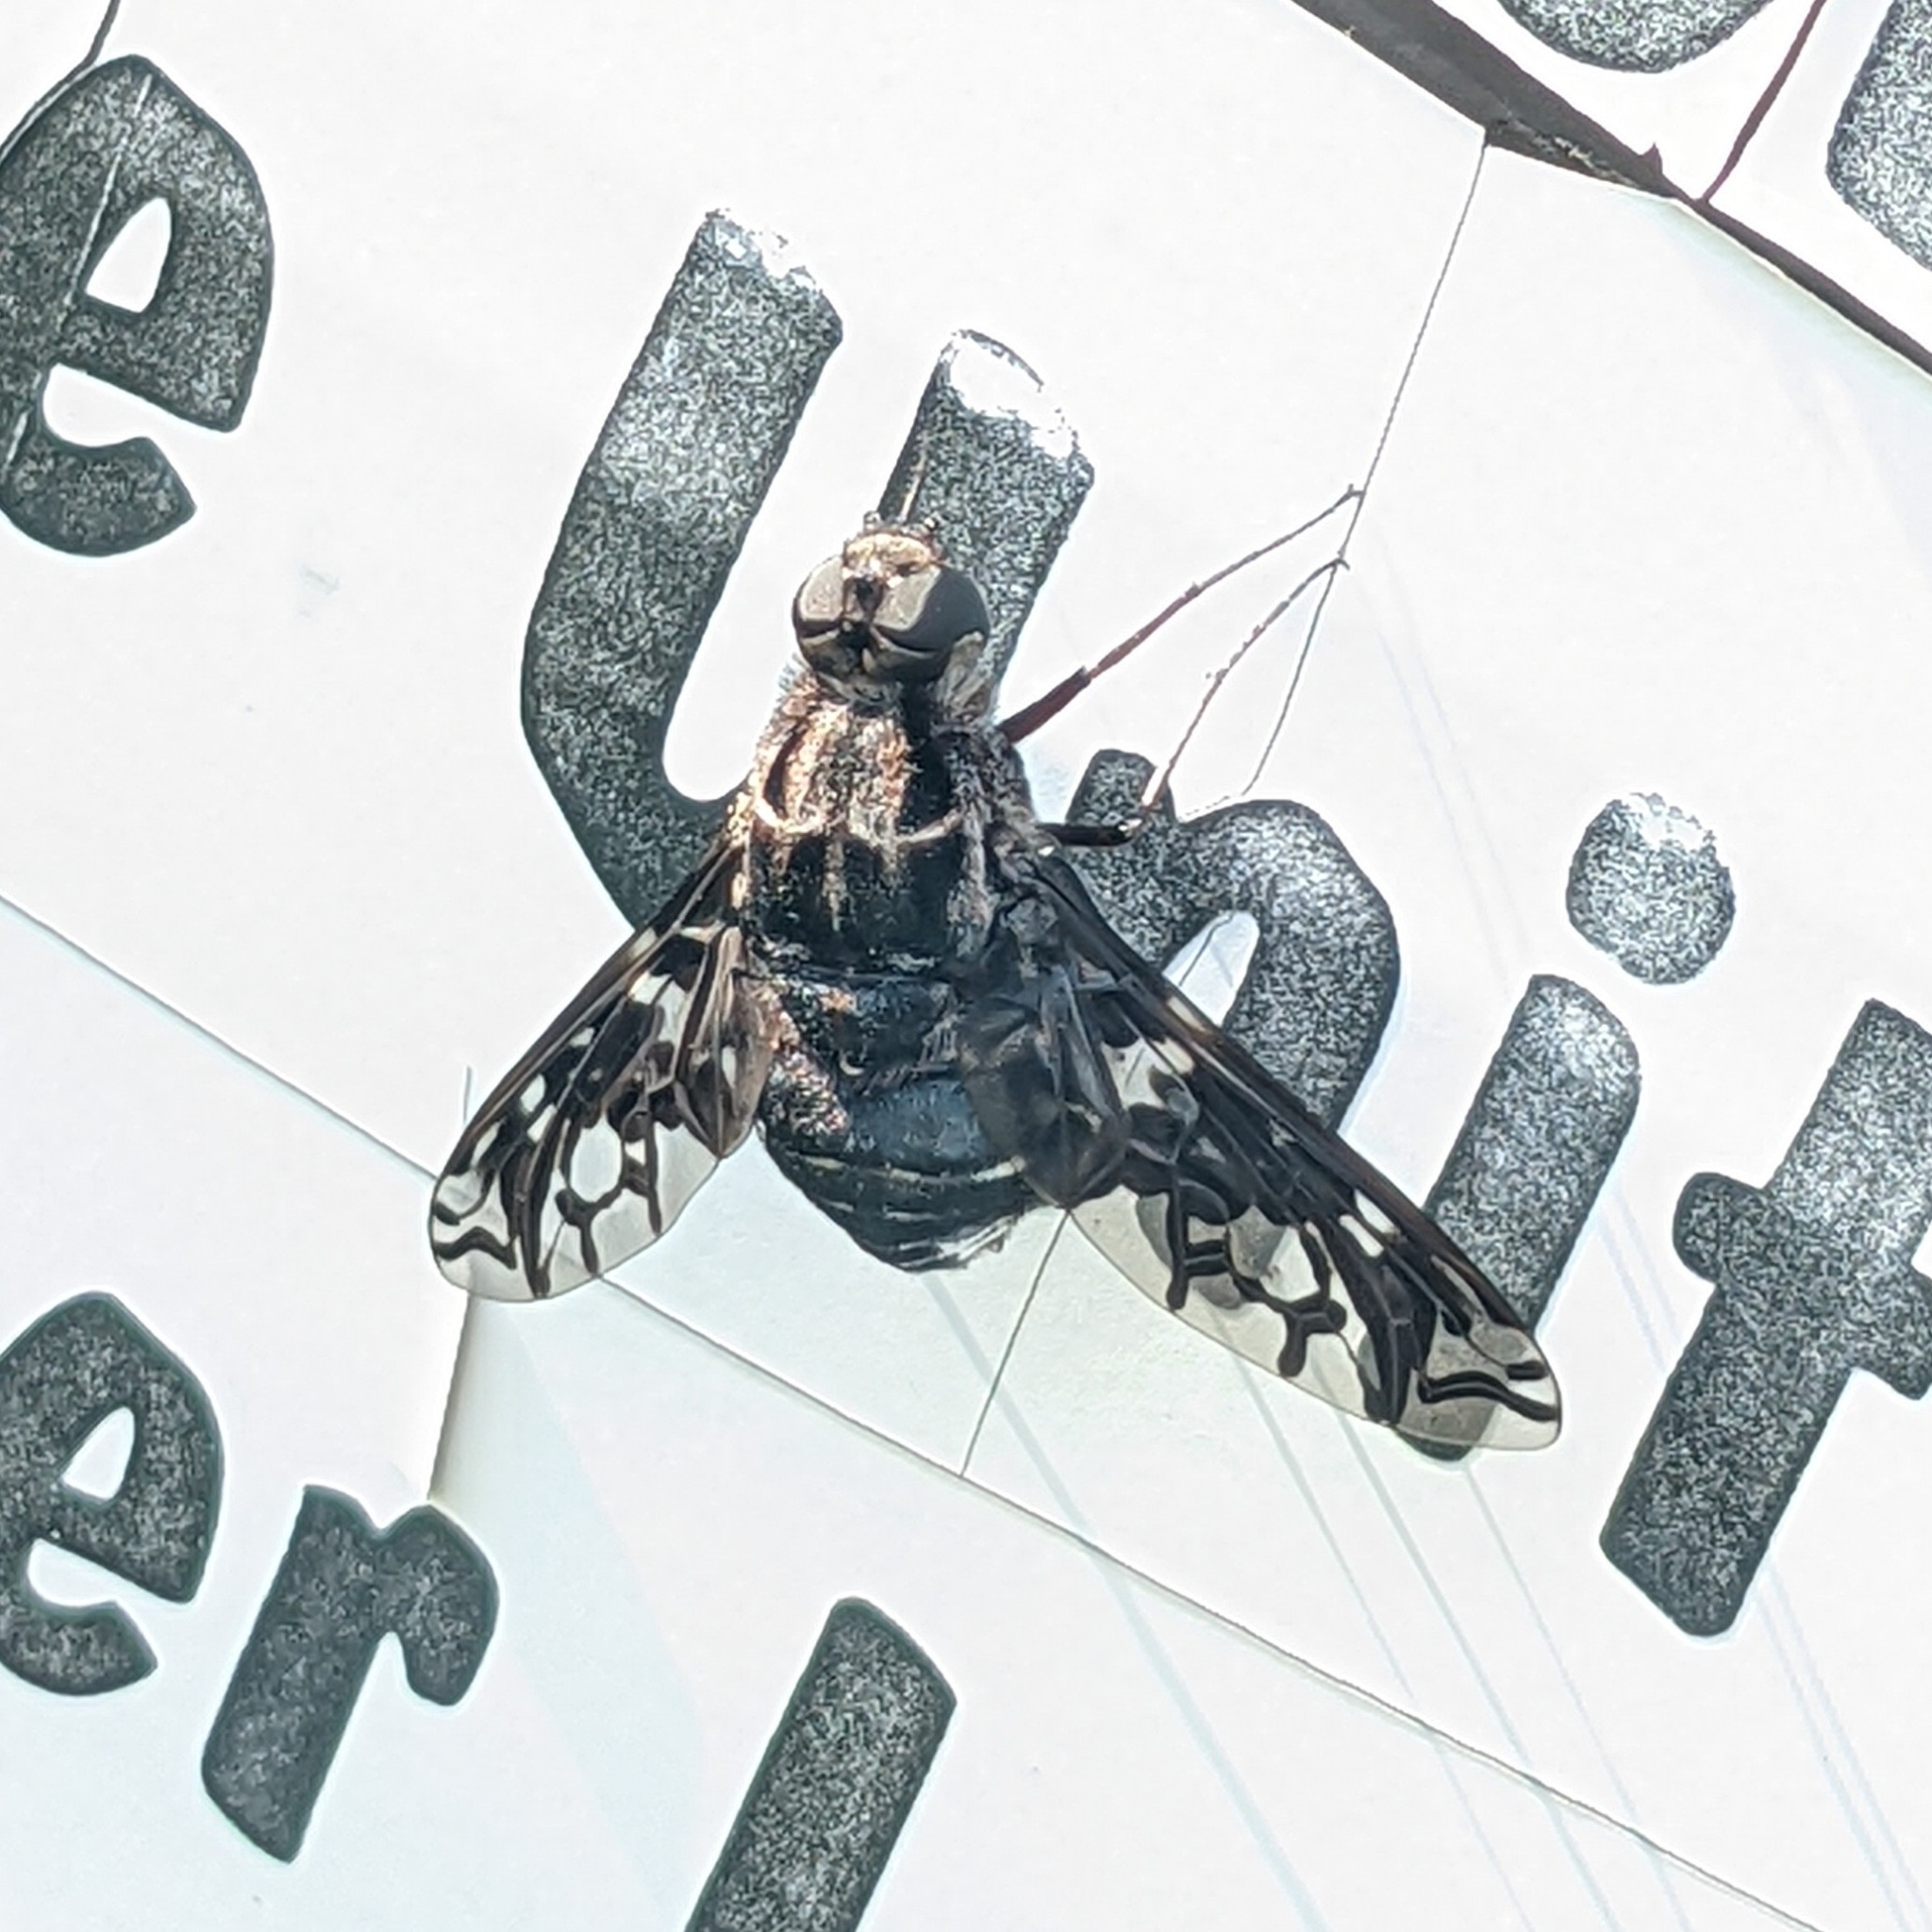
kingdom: Animalia
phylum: Arthropoda
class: Insecta
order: Diptera
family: Bombyliidae
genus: Xenox
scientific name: Xenox tigrinus
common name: Tiger bee fly
